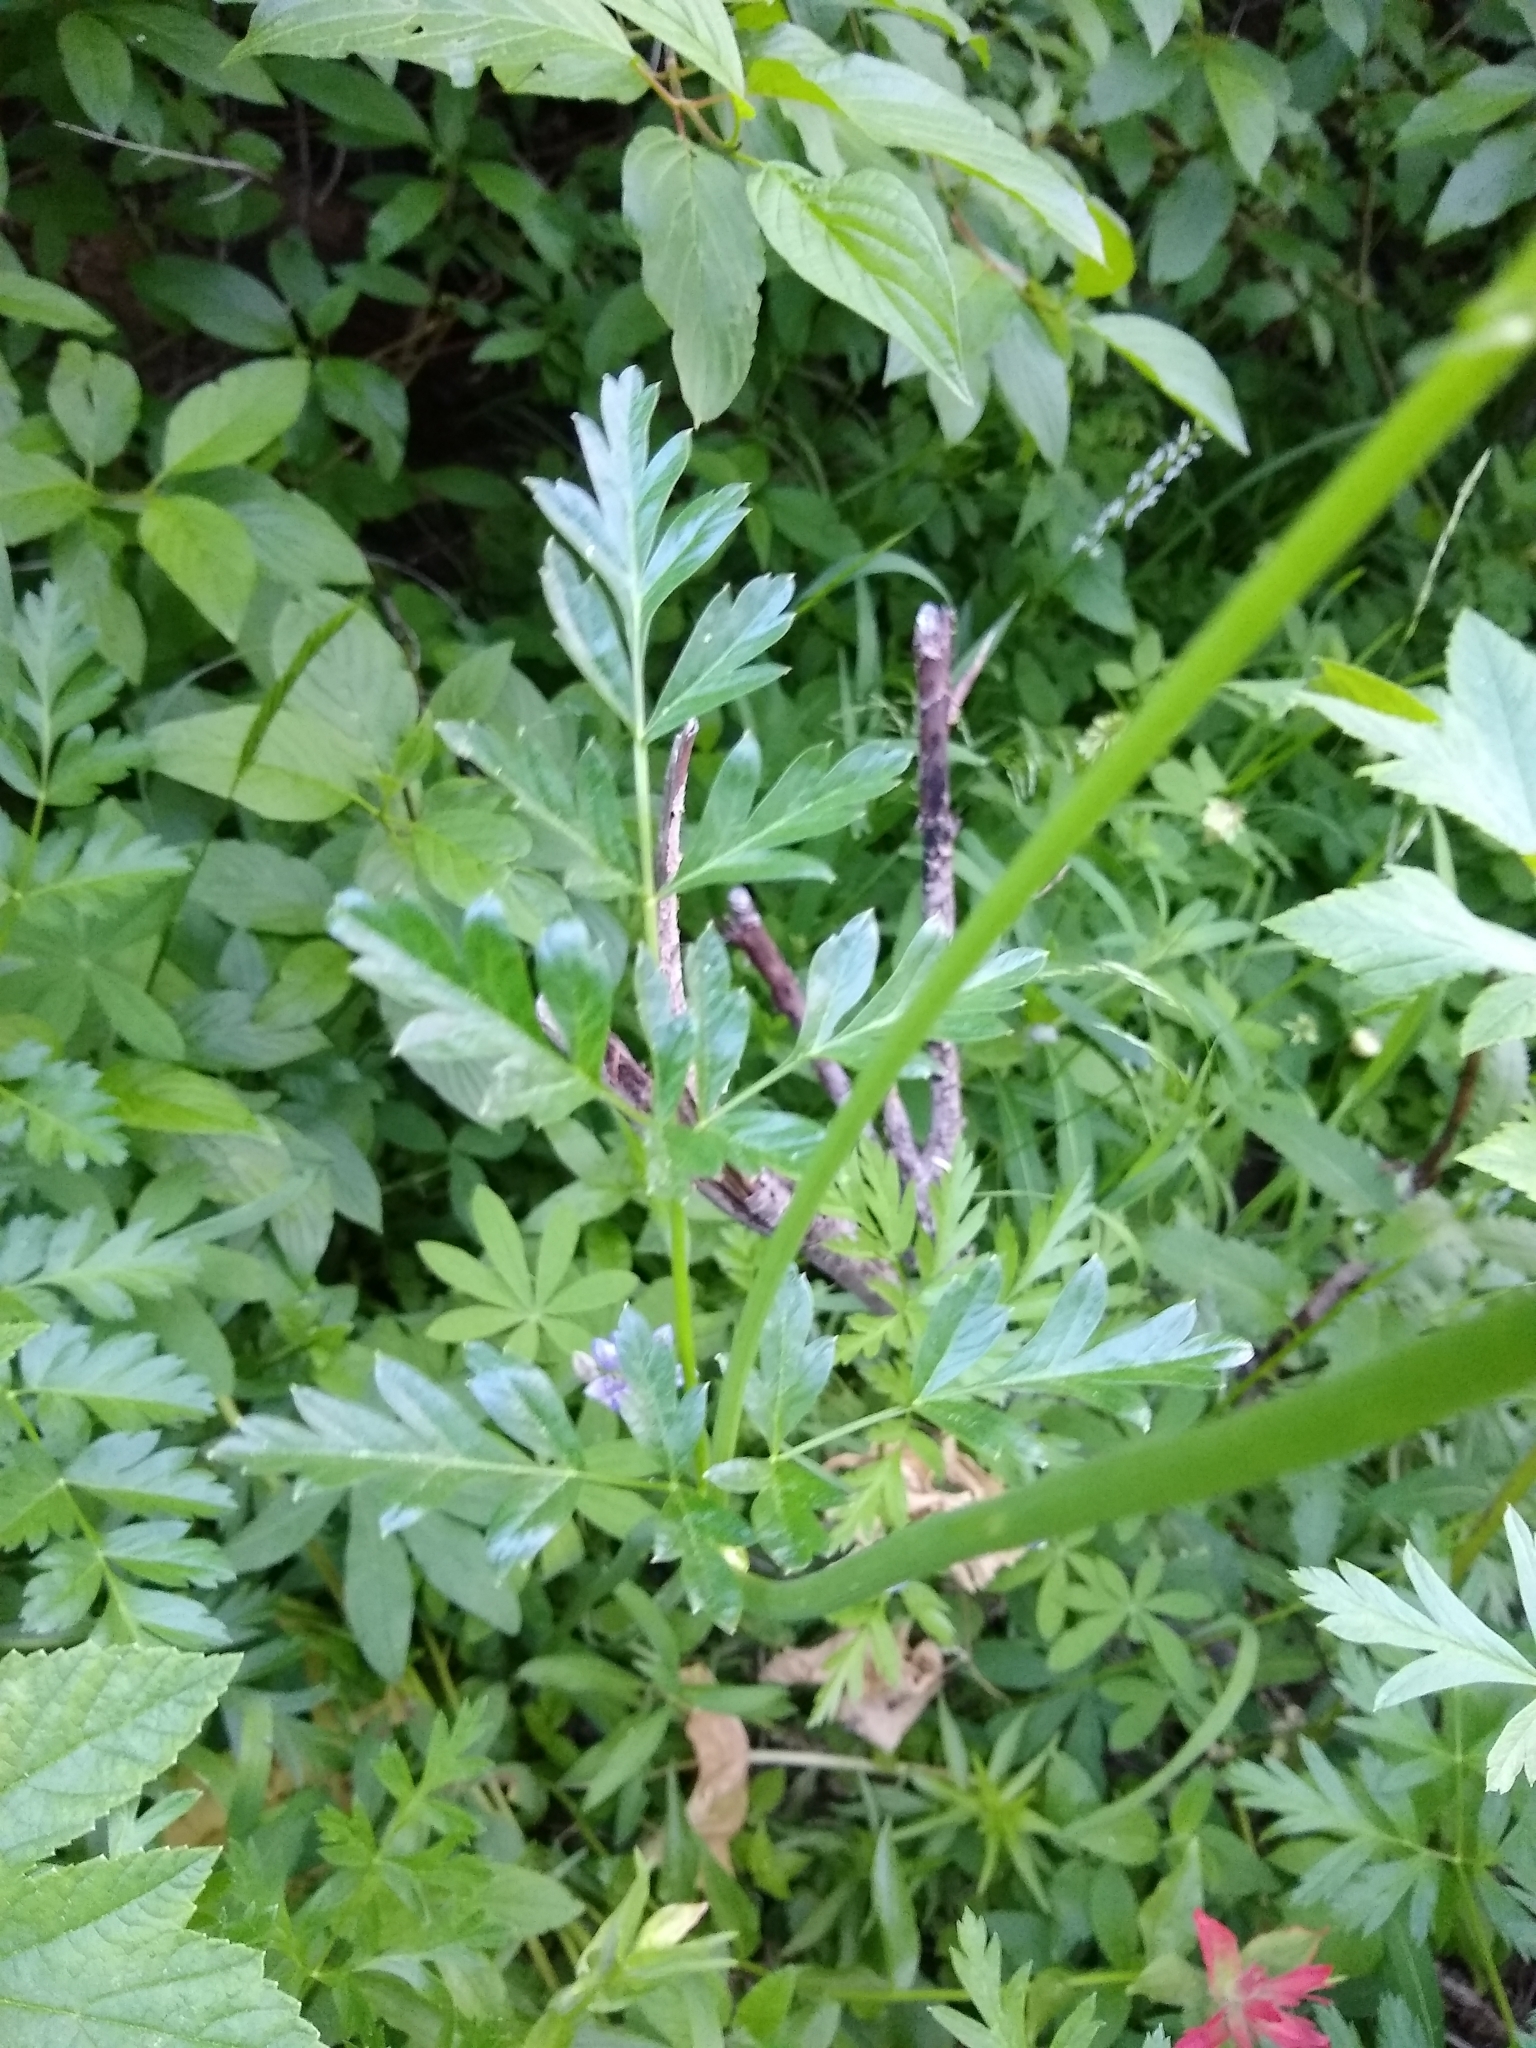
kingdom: Plantae
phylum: Tracheophyta
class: Magnoliopsida
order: Apiales
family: Apiaceae
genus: Ligusticum
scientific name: Ligusticum grayi
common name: Gray's licorice-root
